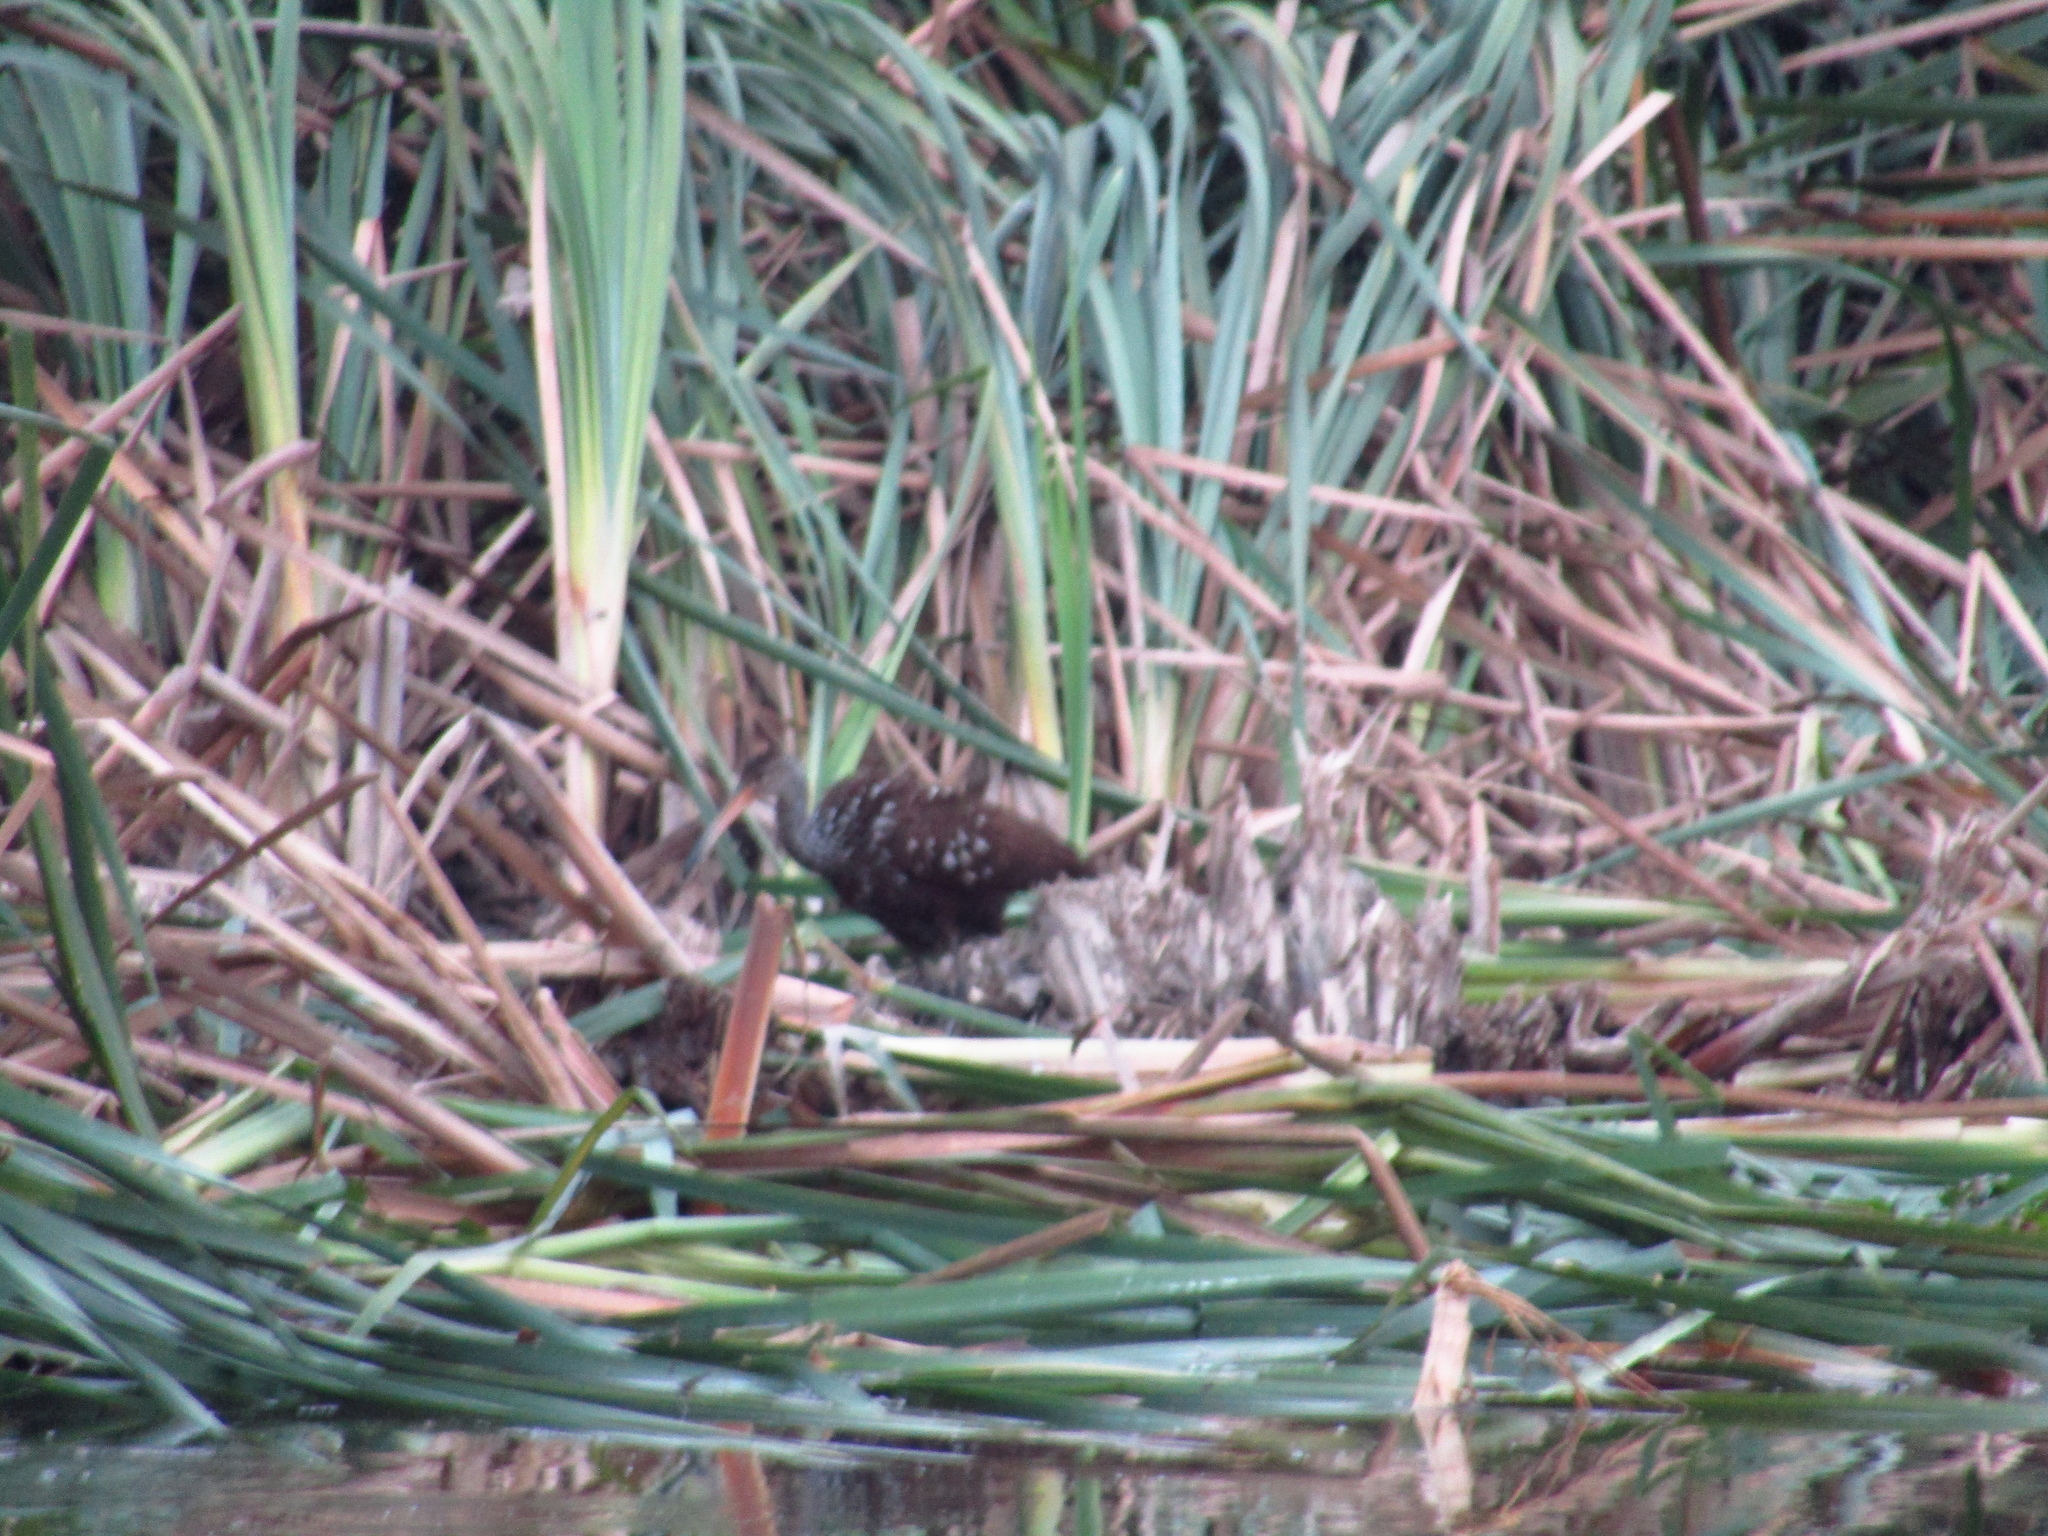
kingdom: Animalia
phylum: Chordata
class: Aves
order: Gruiformes
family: Aramidae
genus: Aramus
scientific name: Aramus guarauna
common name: Limpkin
